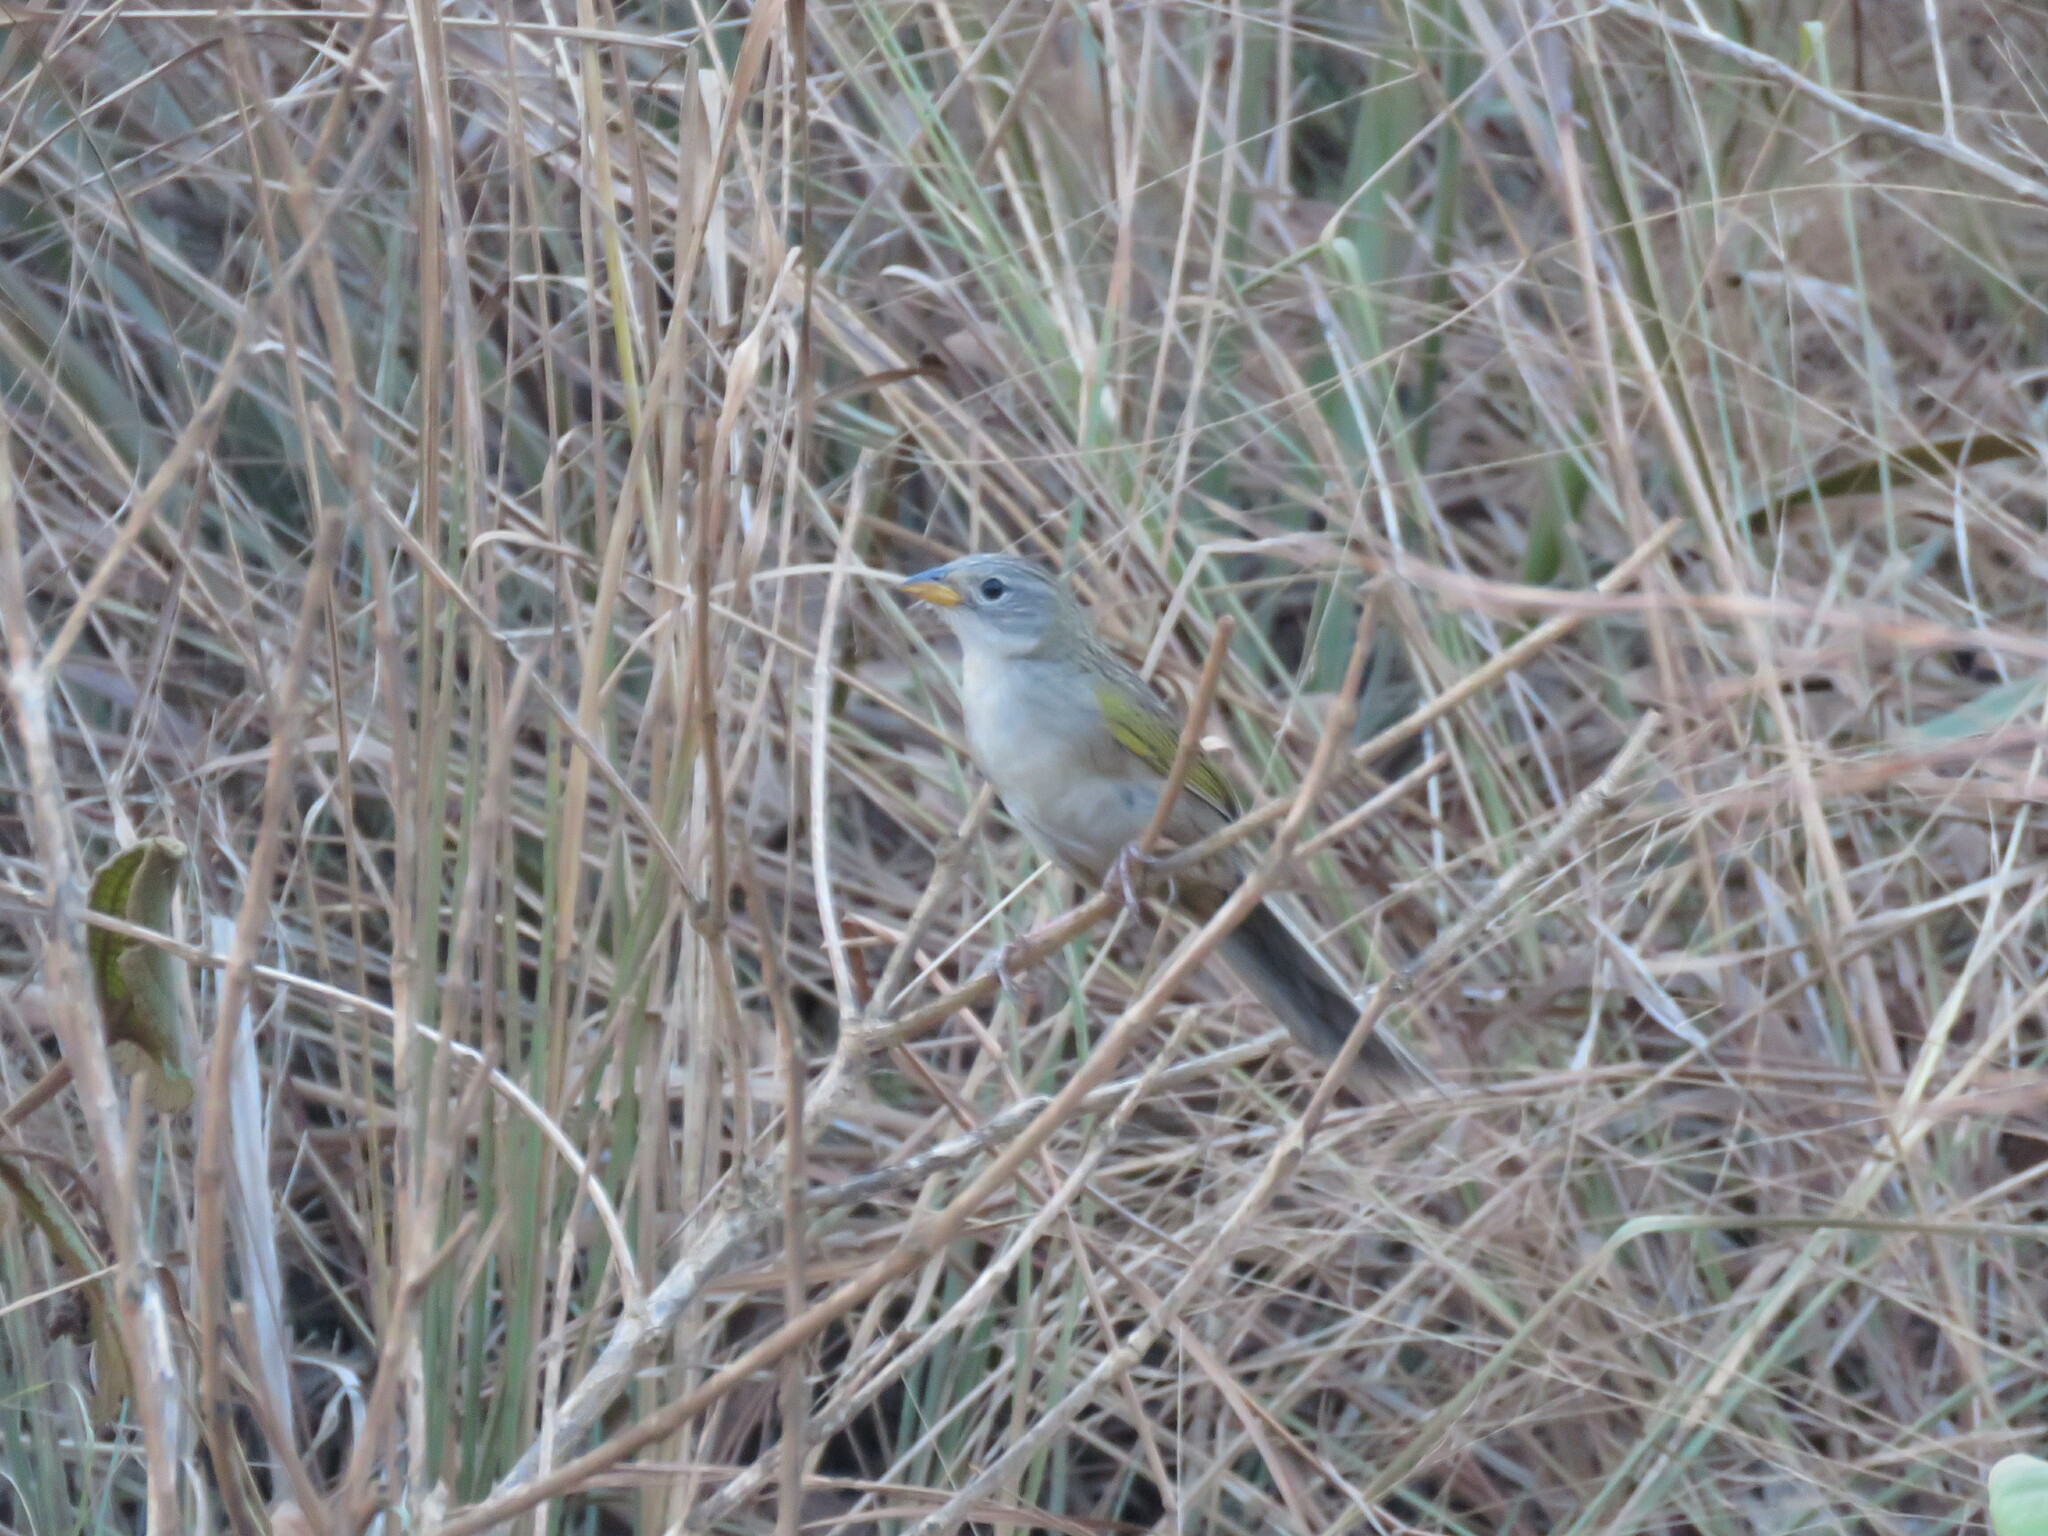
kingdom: Animalia
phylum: Chordata
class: Aves
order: Passeriformes
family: Thraupidae
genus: Emberizoides
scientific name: Emberizoides herbicola
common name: Wedge-tailed grass-finch
